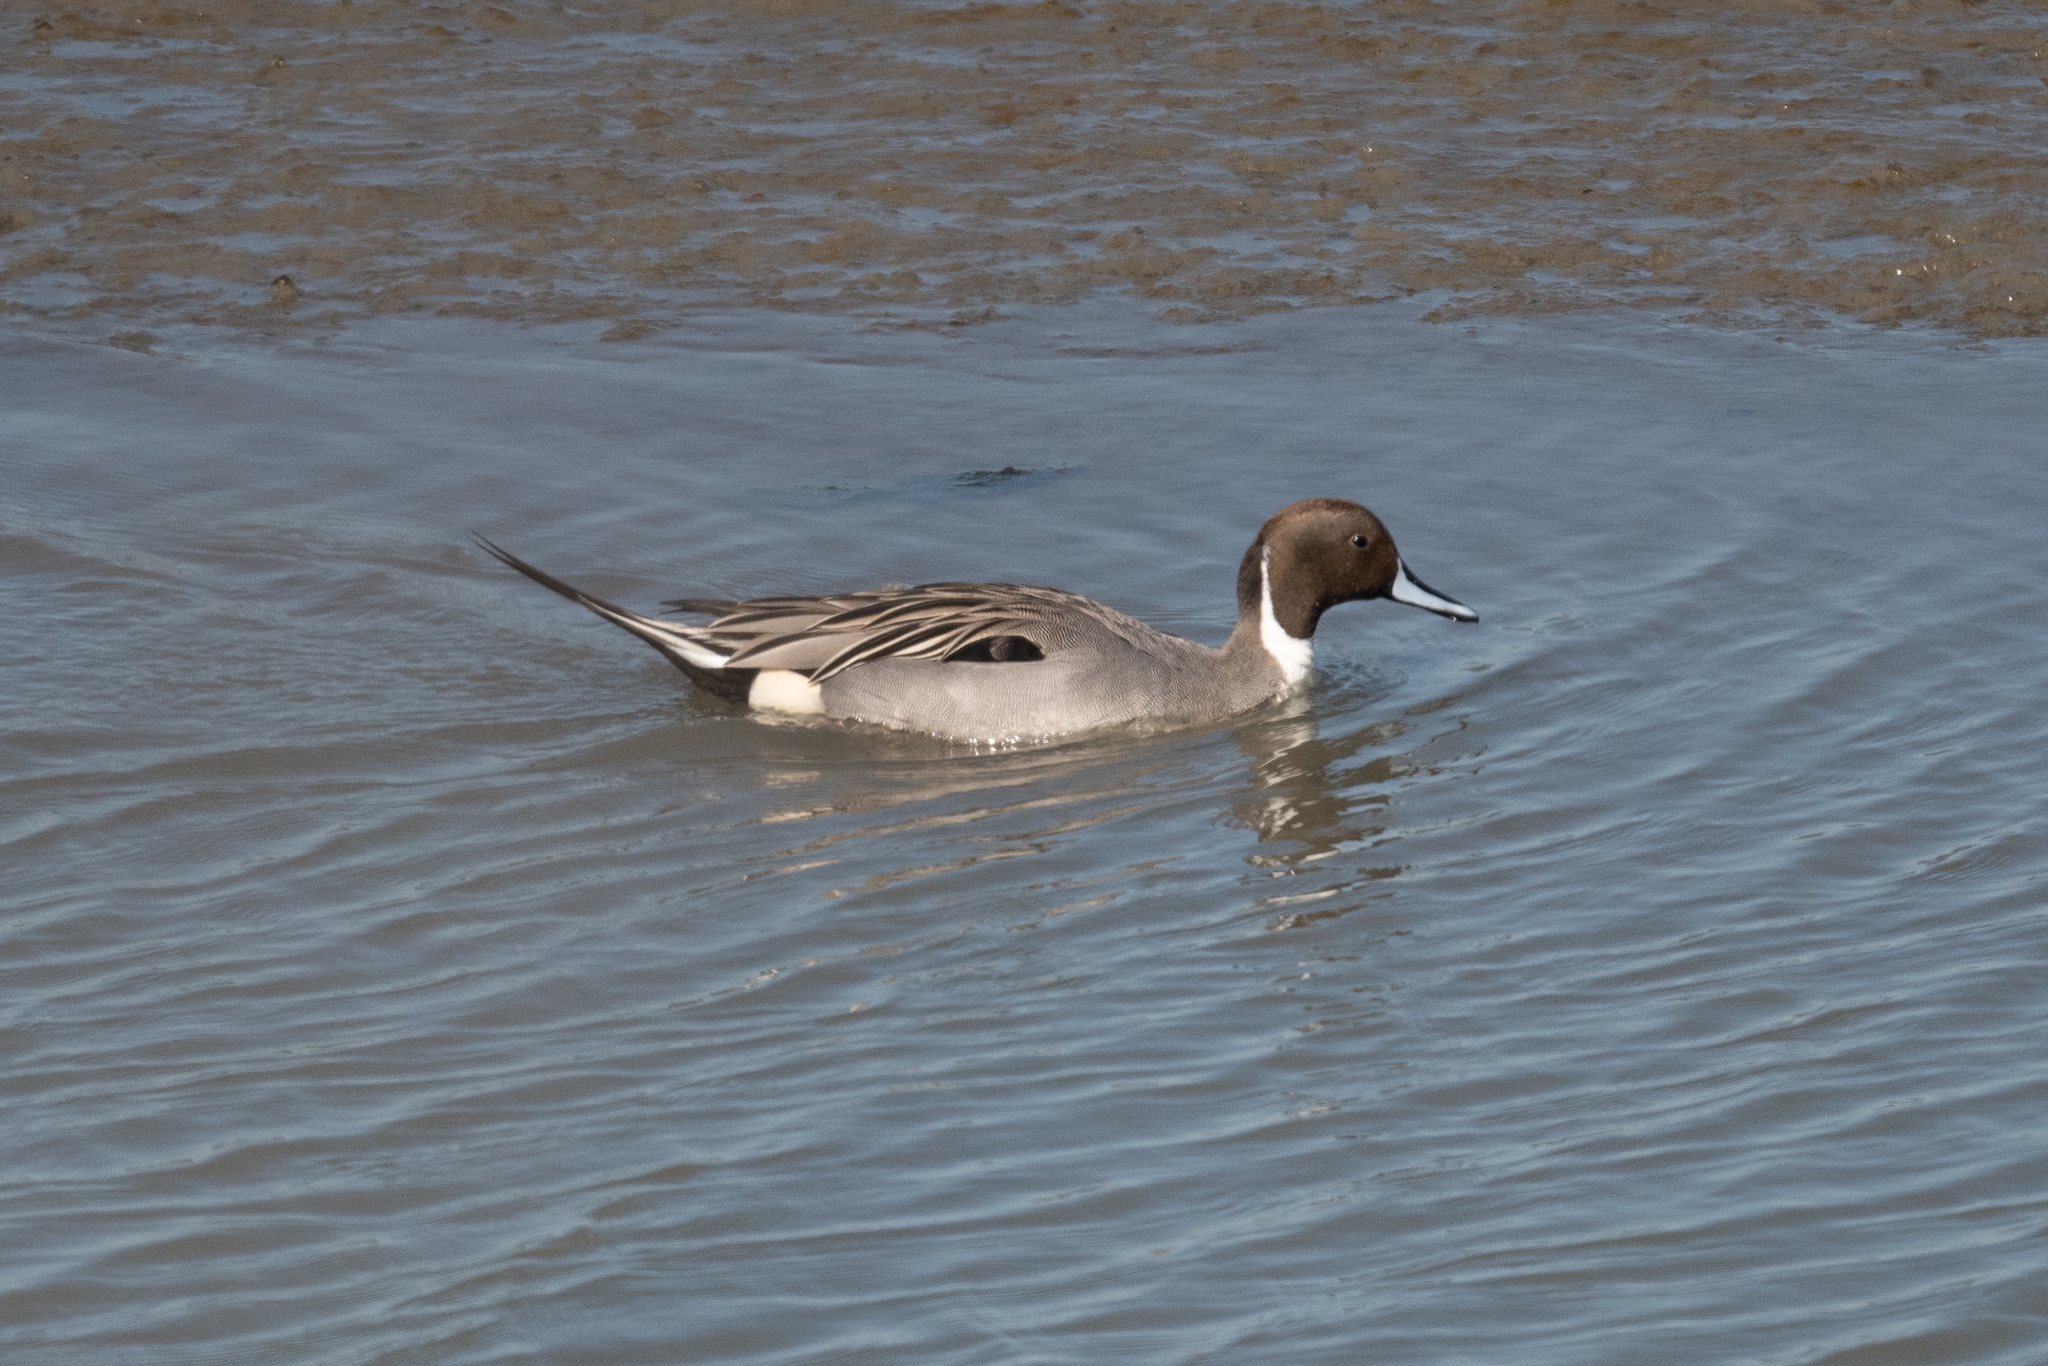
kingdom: Animalia
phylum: Chordata
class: Aves
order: Anseriformes
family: Anatidae
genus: Anas
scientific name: Anas acuta
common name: Northern pintail
